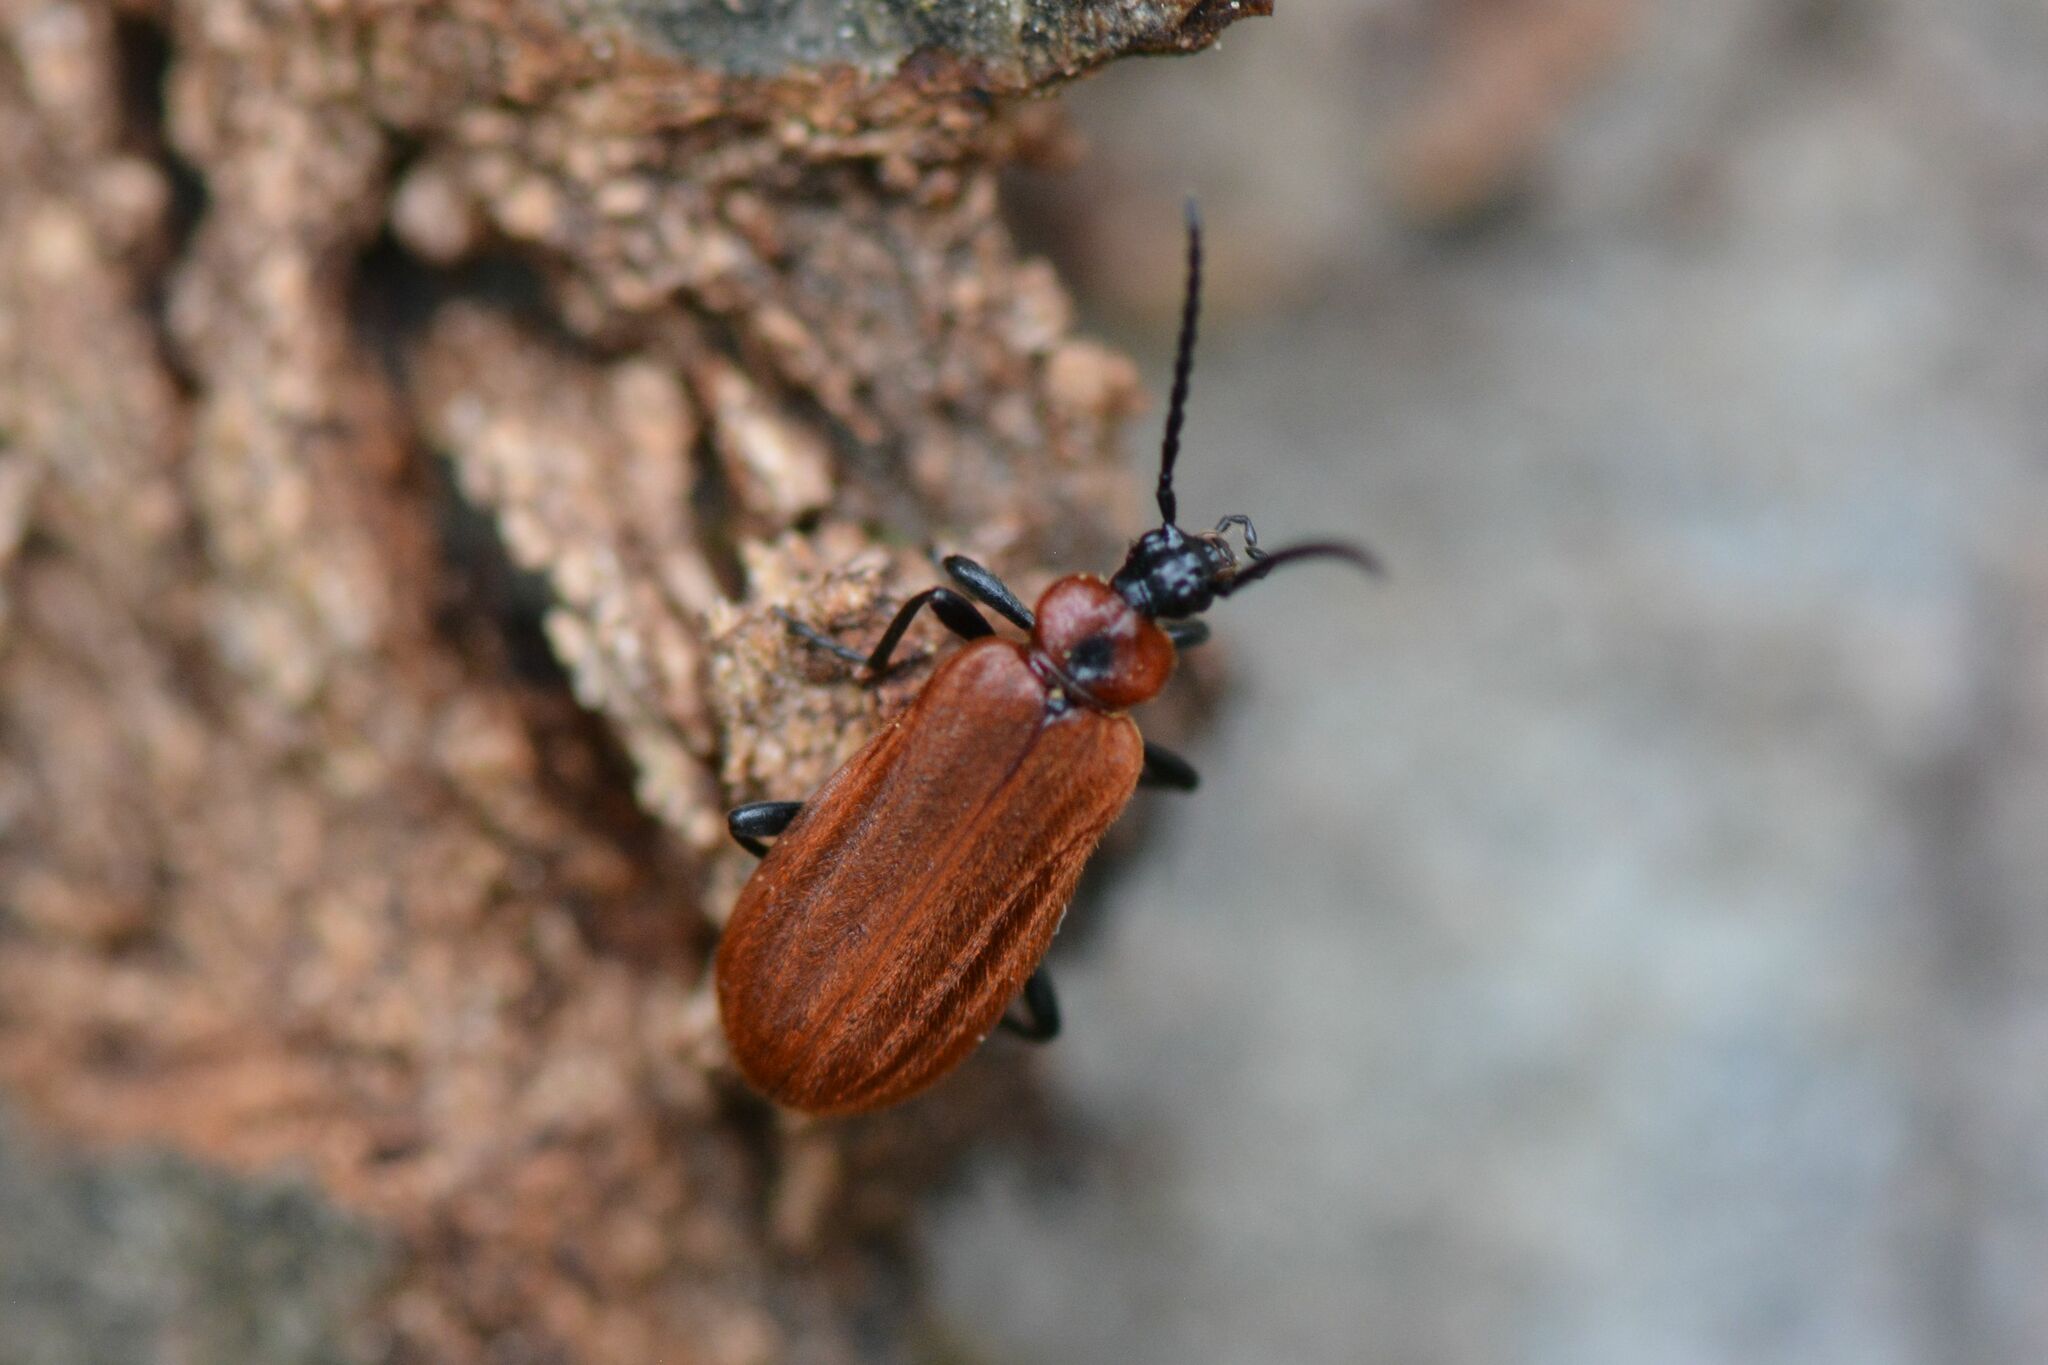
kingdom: Animalia
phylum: Arthropoda
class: Insecta
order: Coleoptera
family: Pyrochroidae
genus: Schizotus
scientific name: Schizotus pectinicornis
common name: Scarce cardinal beetle
